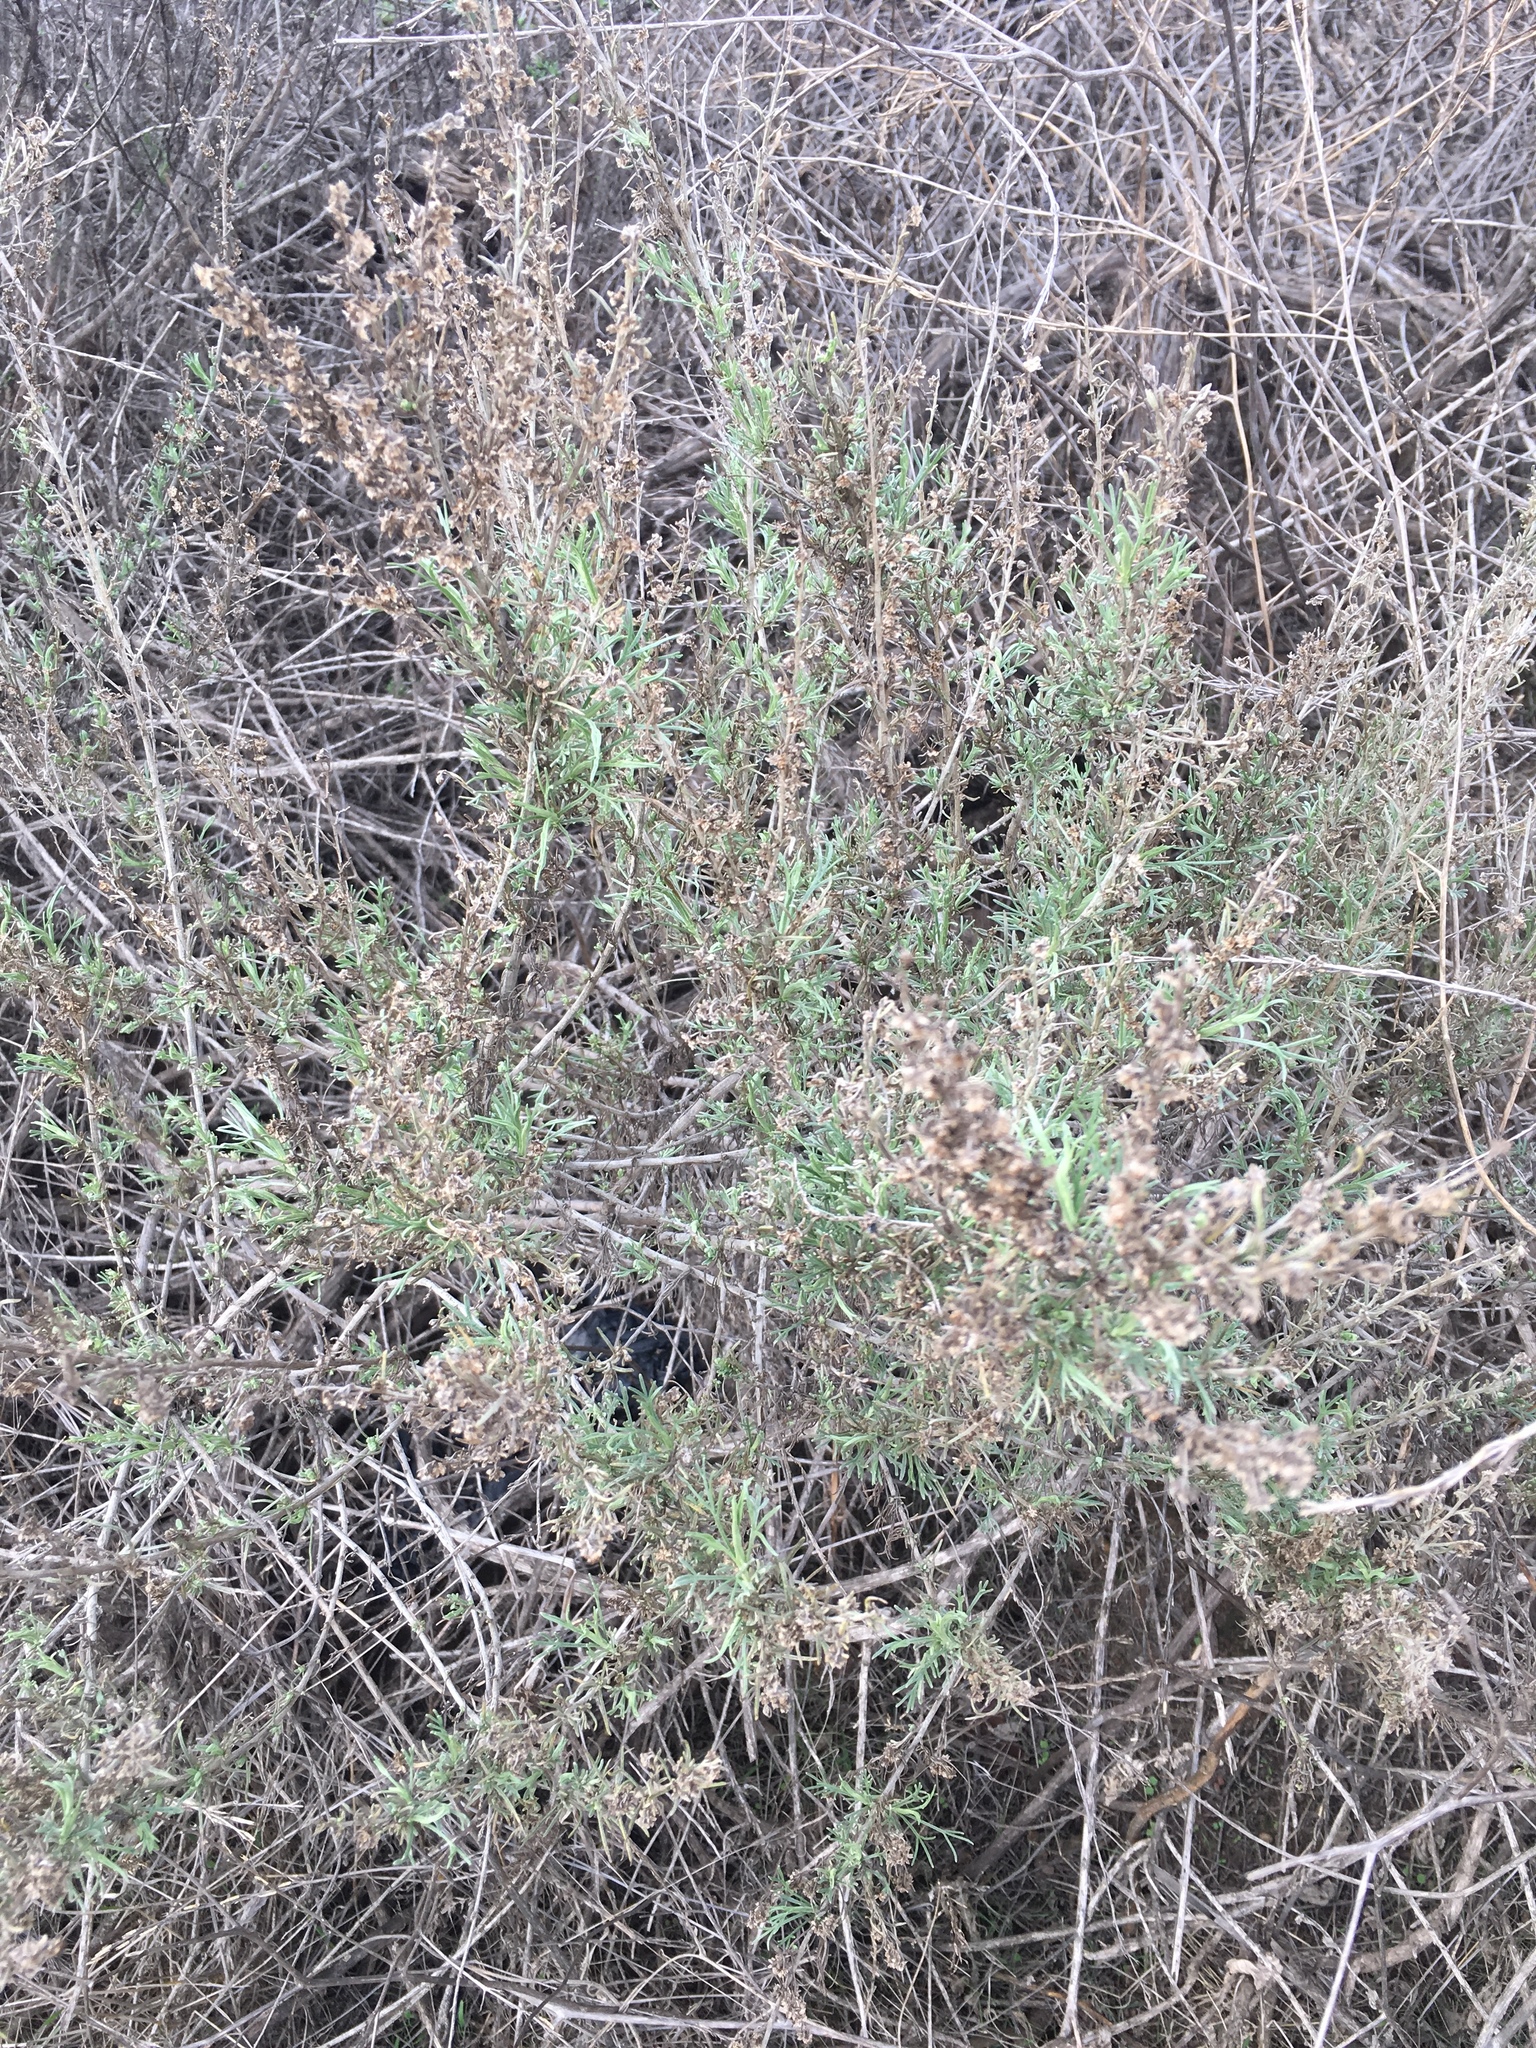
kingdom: Plantae
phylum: Tracheophyta
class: Magnoliopsida
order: Asterales
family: Asteraceae
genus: Artemisia
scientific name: Artemisia californica
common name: California sagebrush
